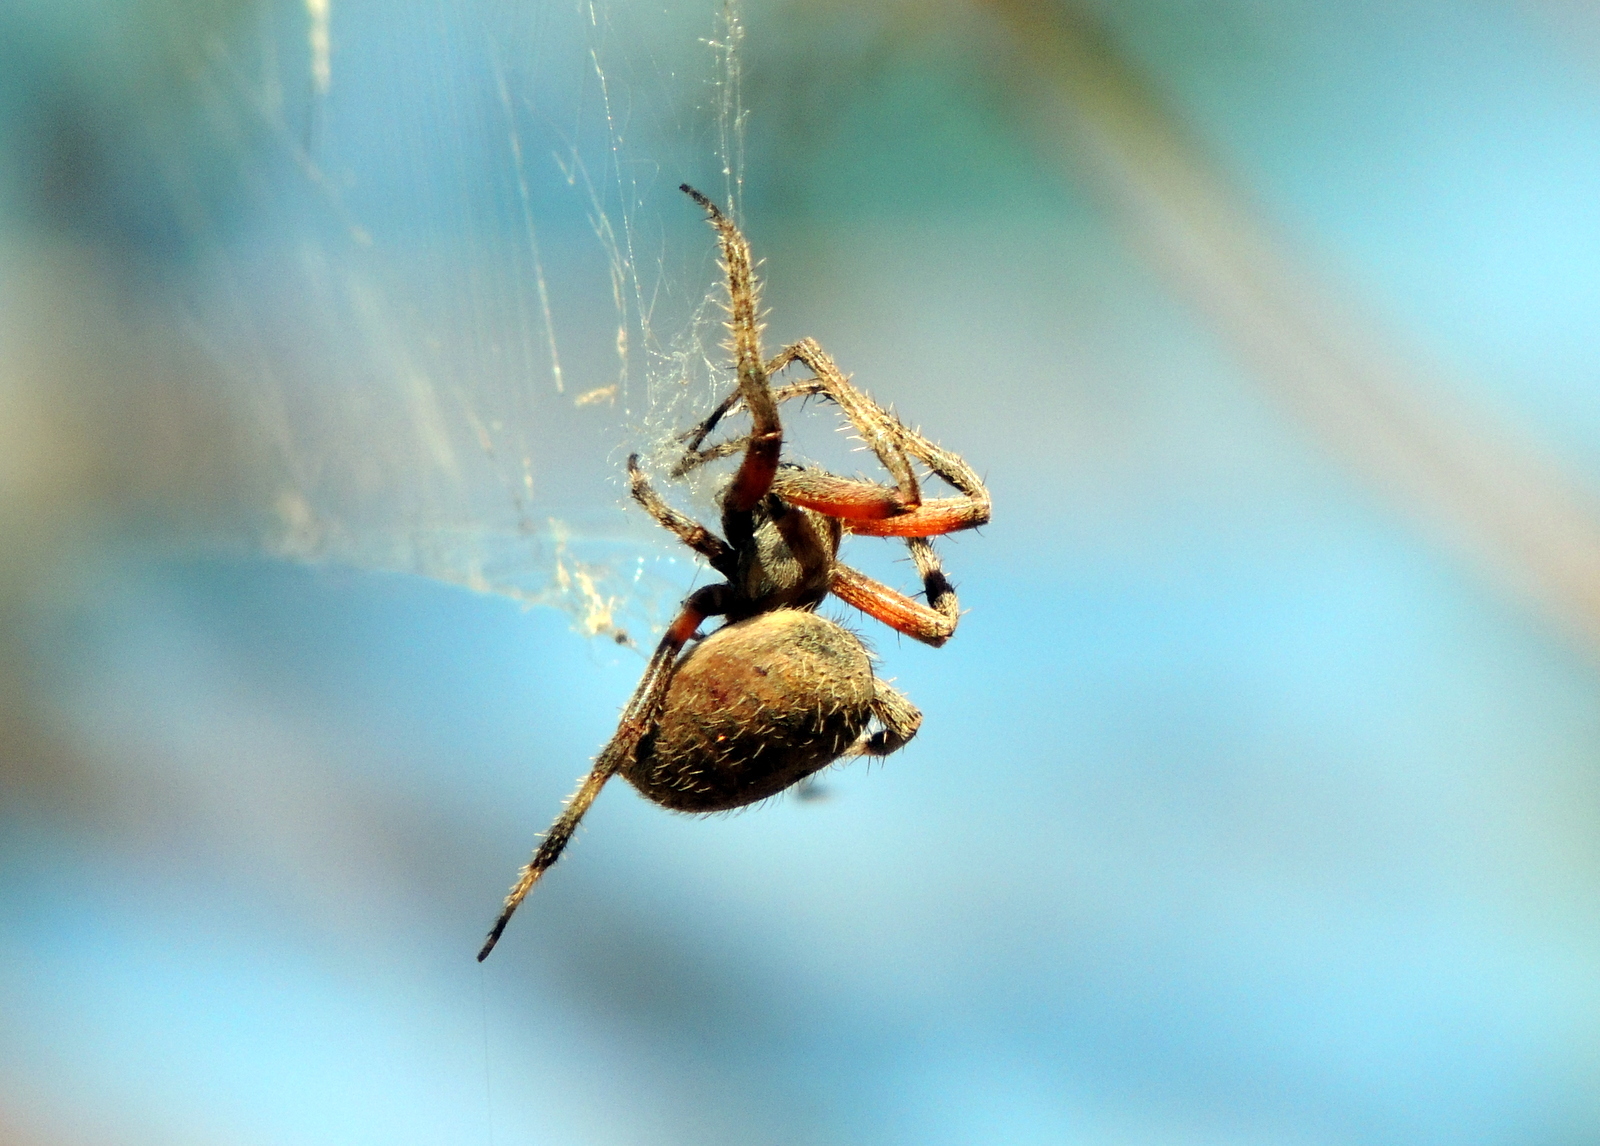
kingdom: Animalia
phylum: Arthropoda
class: Arachnida
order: Araneae
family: Araneidae
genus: Neoscona
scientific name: Neoscona crucifera
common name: Spotted orbweaver
